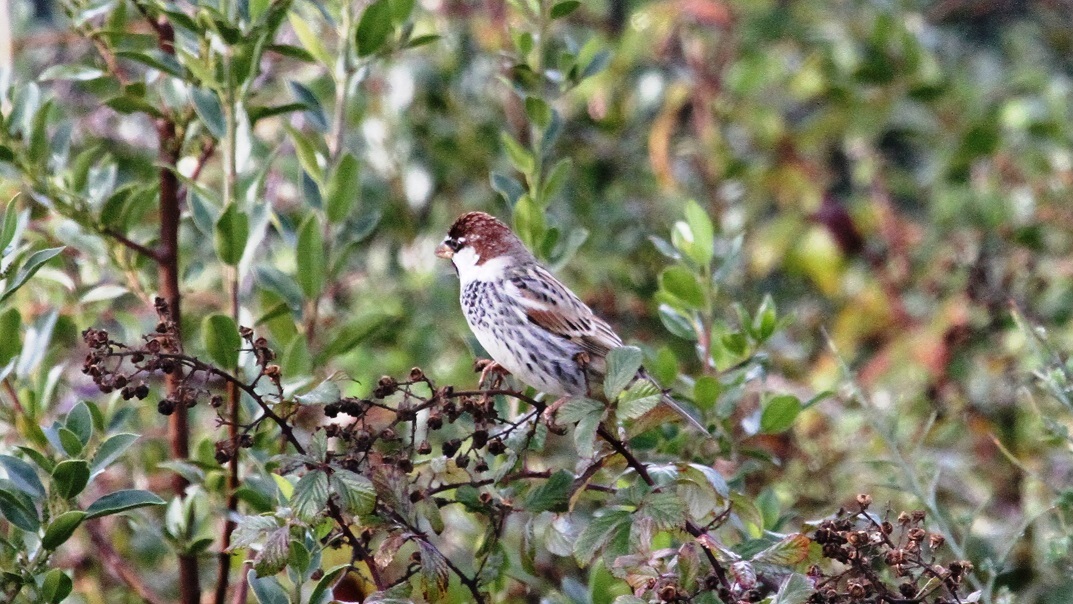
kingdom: Animalia
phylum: Chordata
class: Aves
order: Passeriformes
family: Passeridae
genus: Passer
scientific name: Passer hispaniolensis
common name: Spanish sparrow
